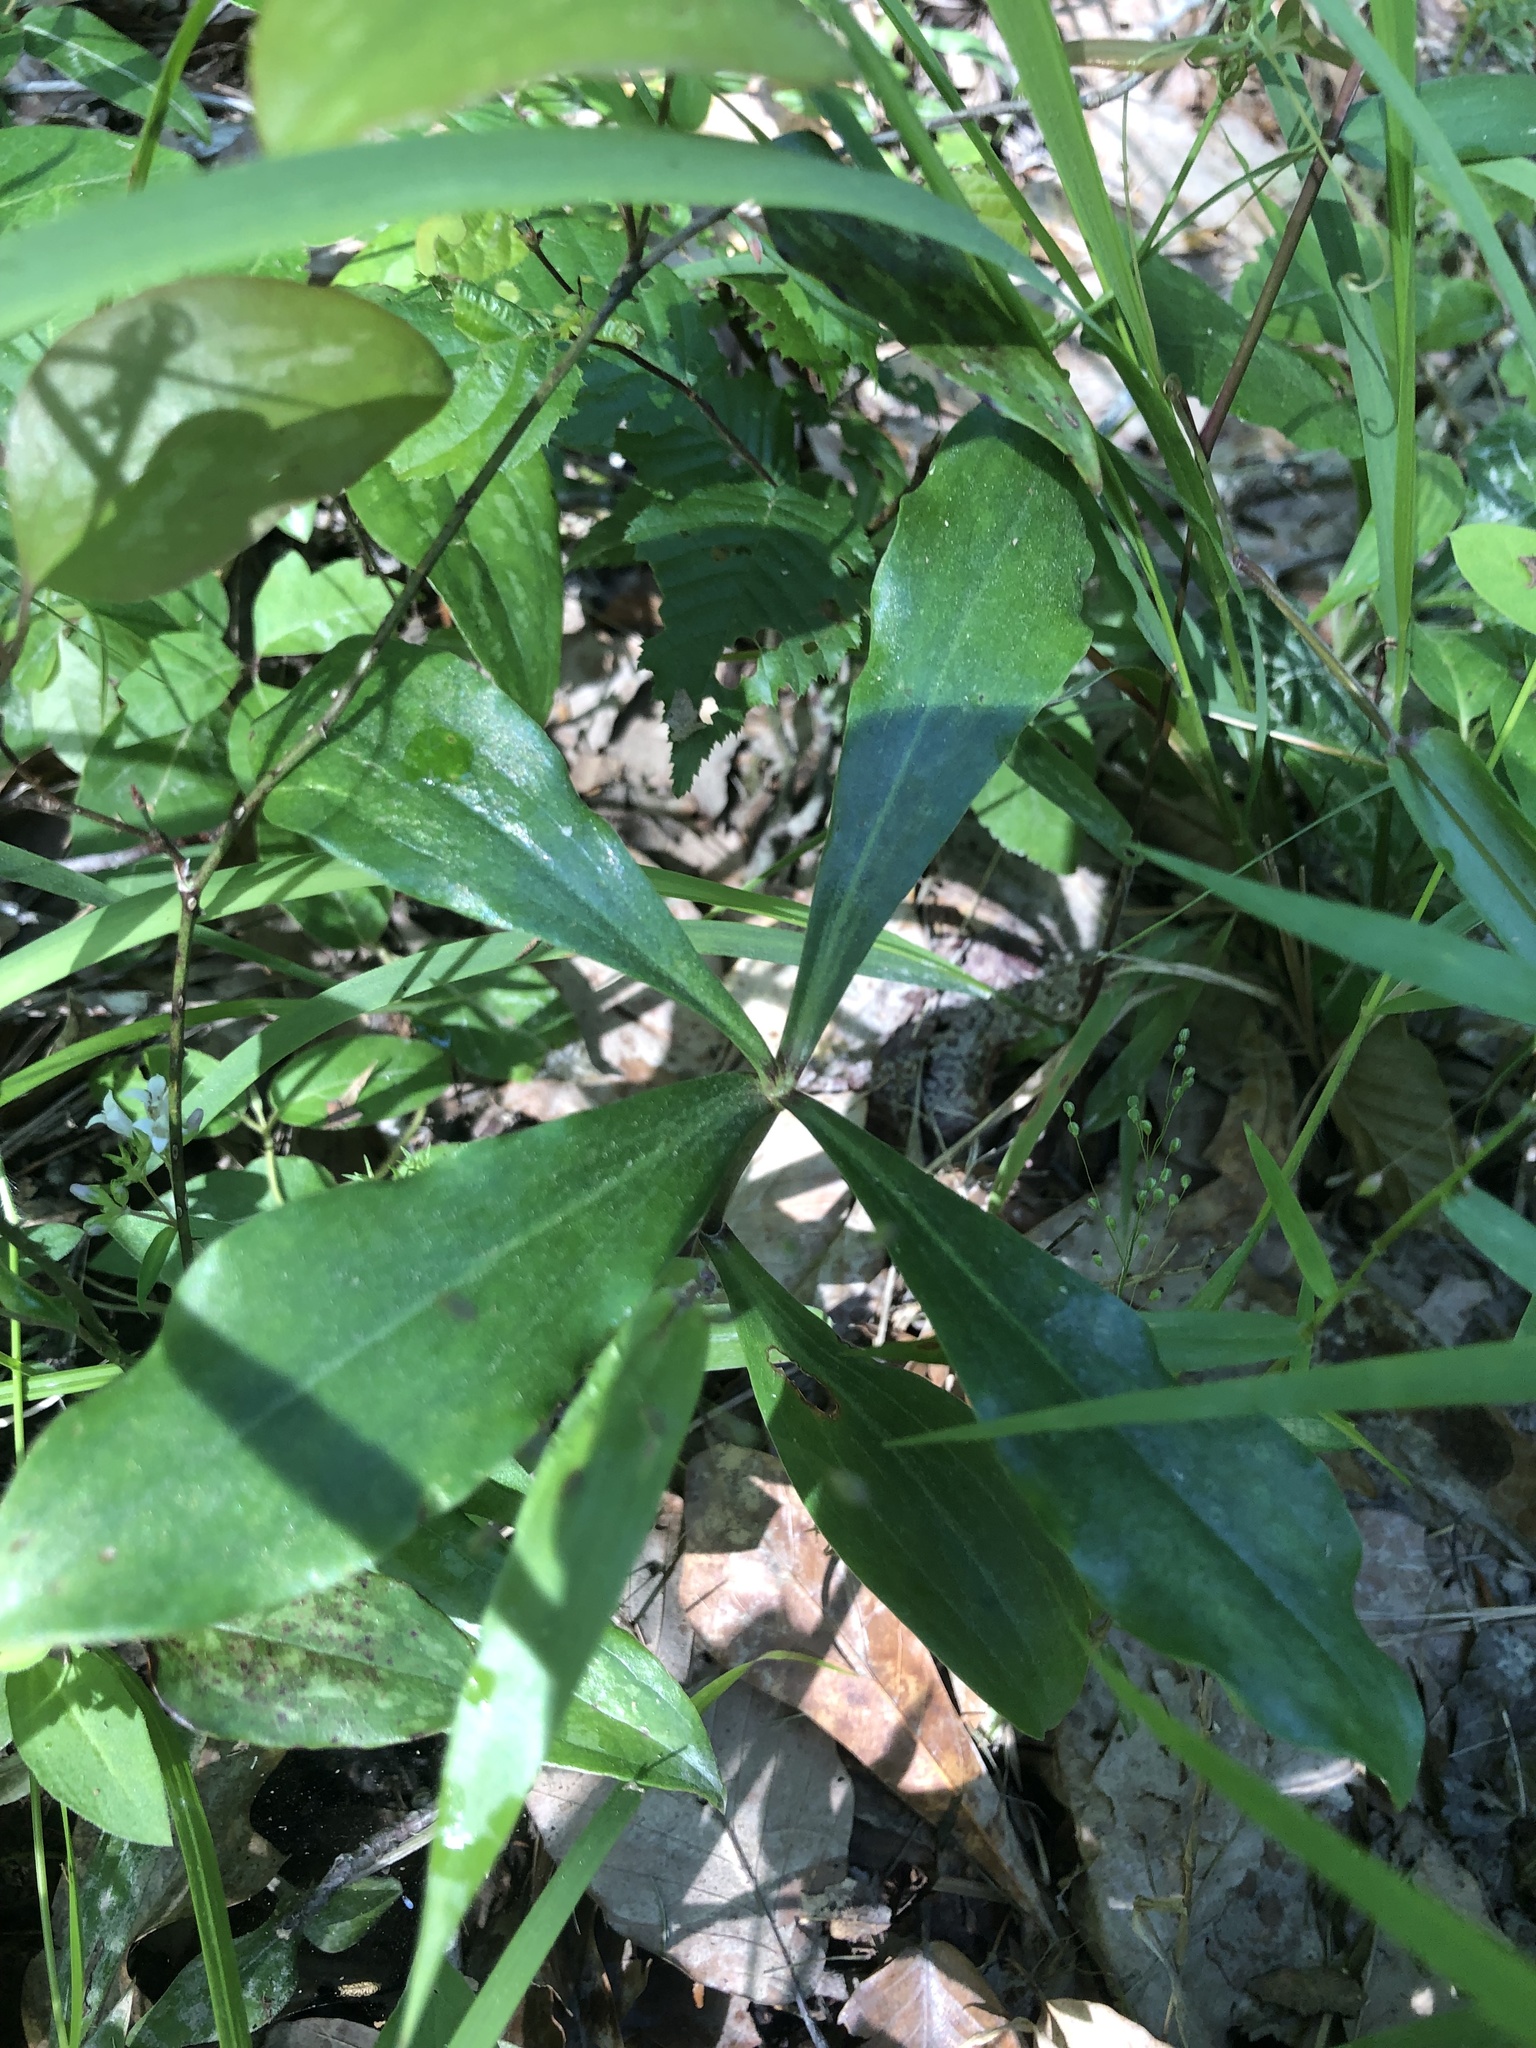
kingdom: Plantae
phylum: Tracheophyta
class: Liliopsida
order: Liliales
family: Liliaceae
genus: Lilium
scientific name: Lilium michauxii
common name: Carolina lily
